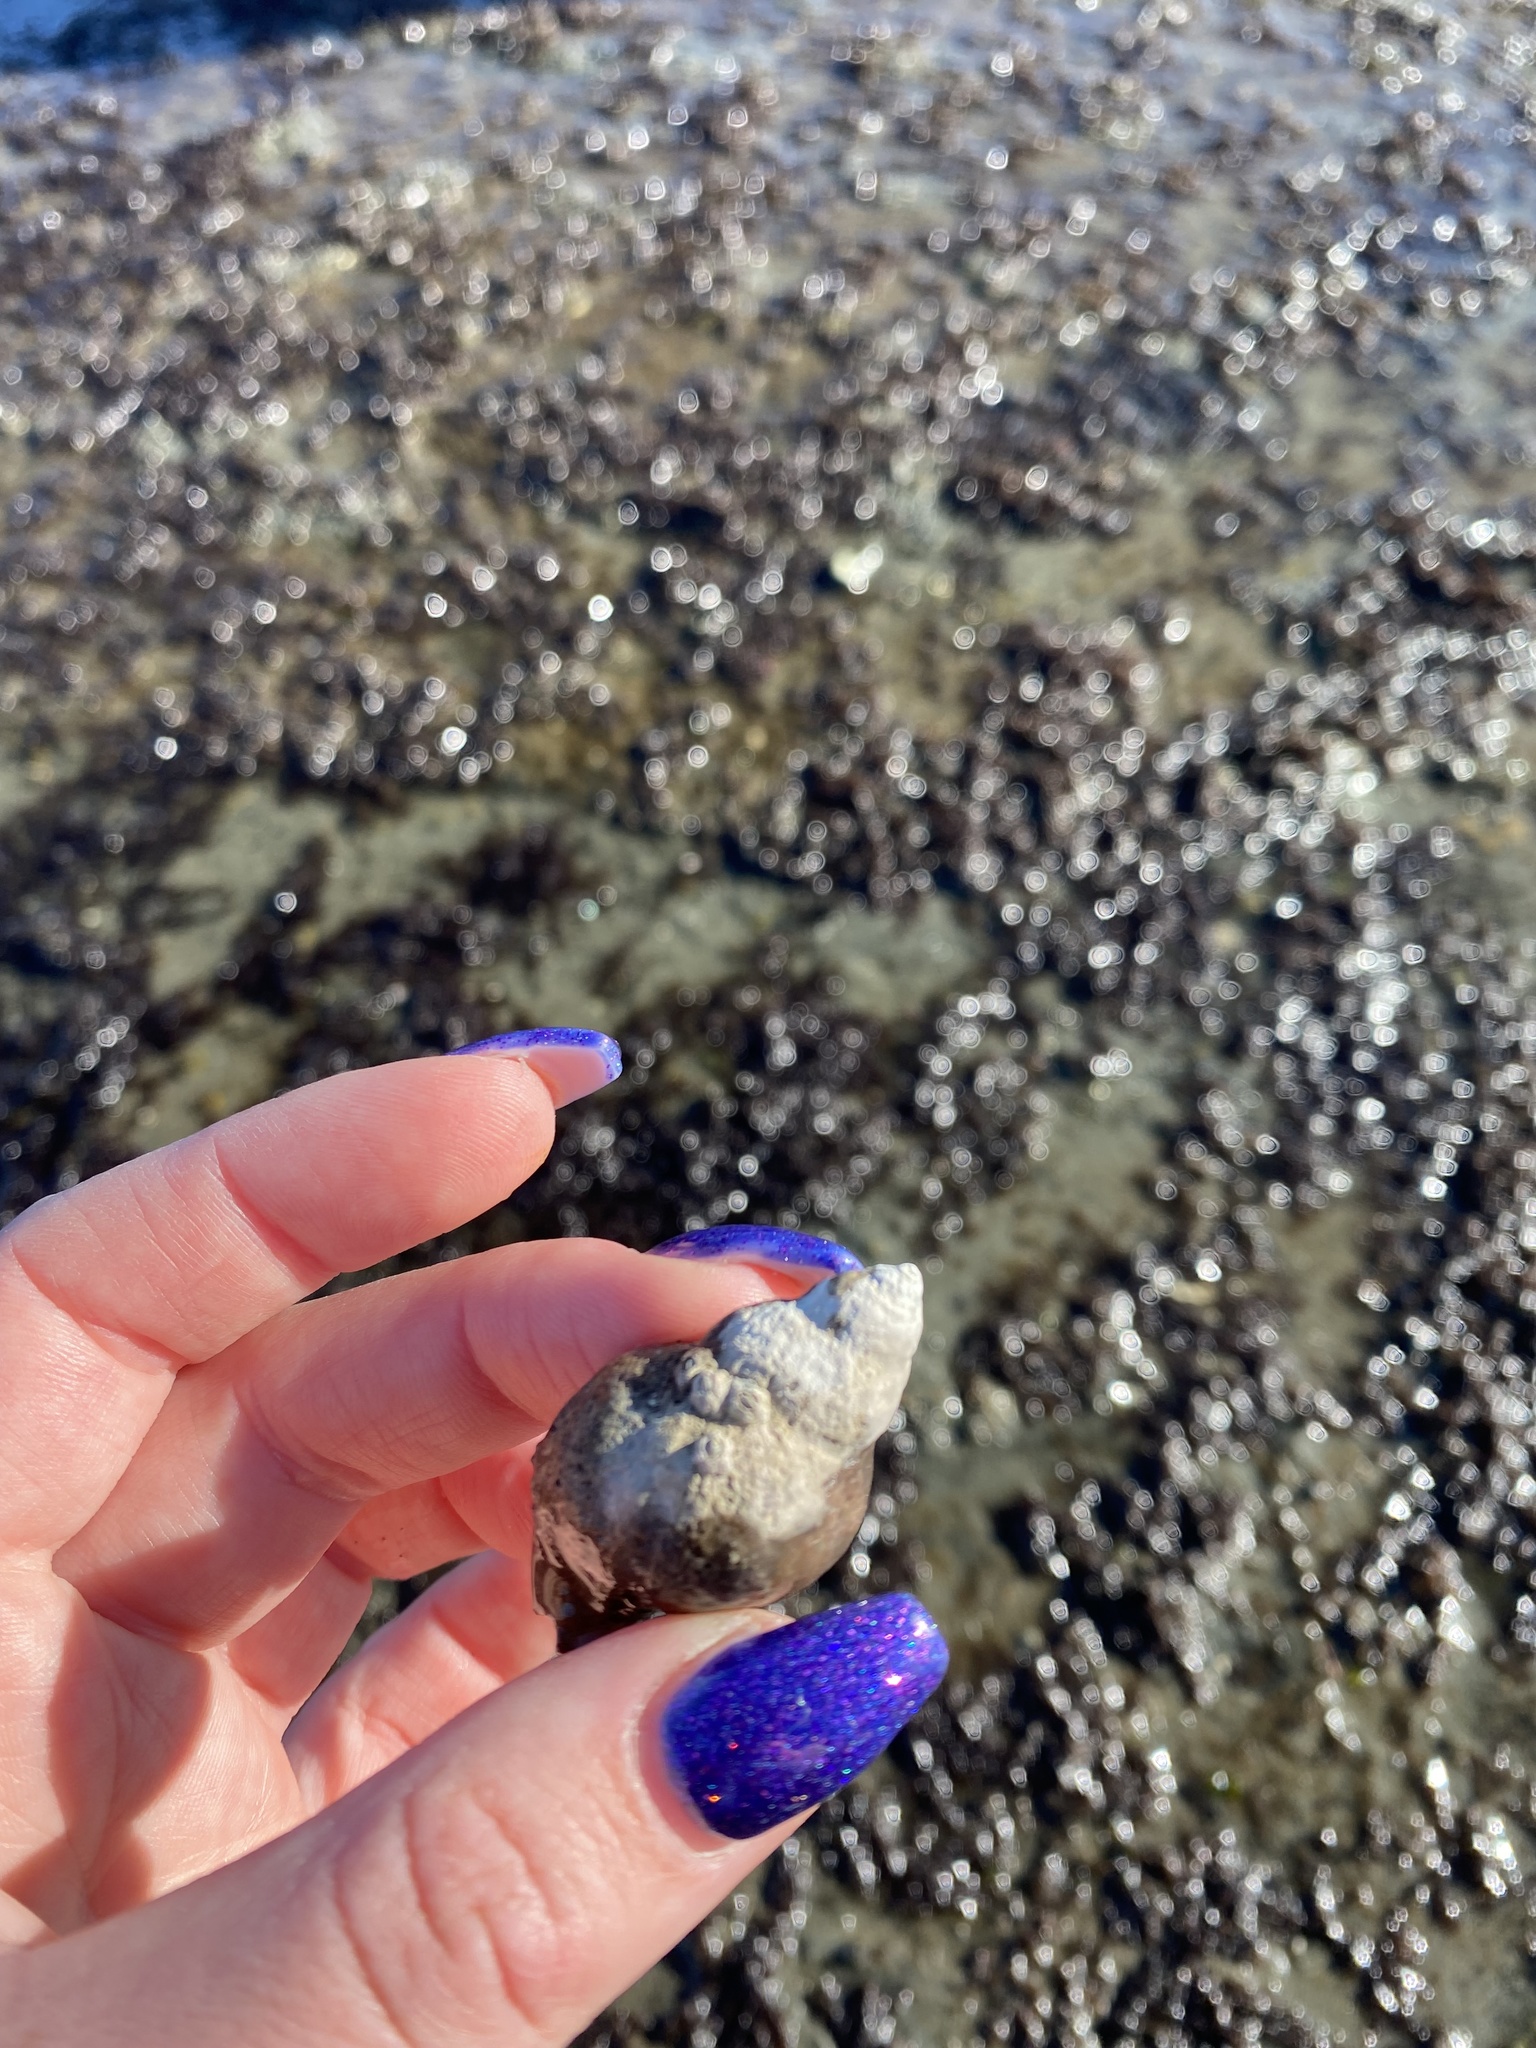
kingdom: Animalia
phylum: Mollusca
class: Gastropoda
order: Neogastropoda
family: Muricidae
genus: Nucella
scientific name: Nucella lamellosa
